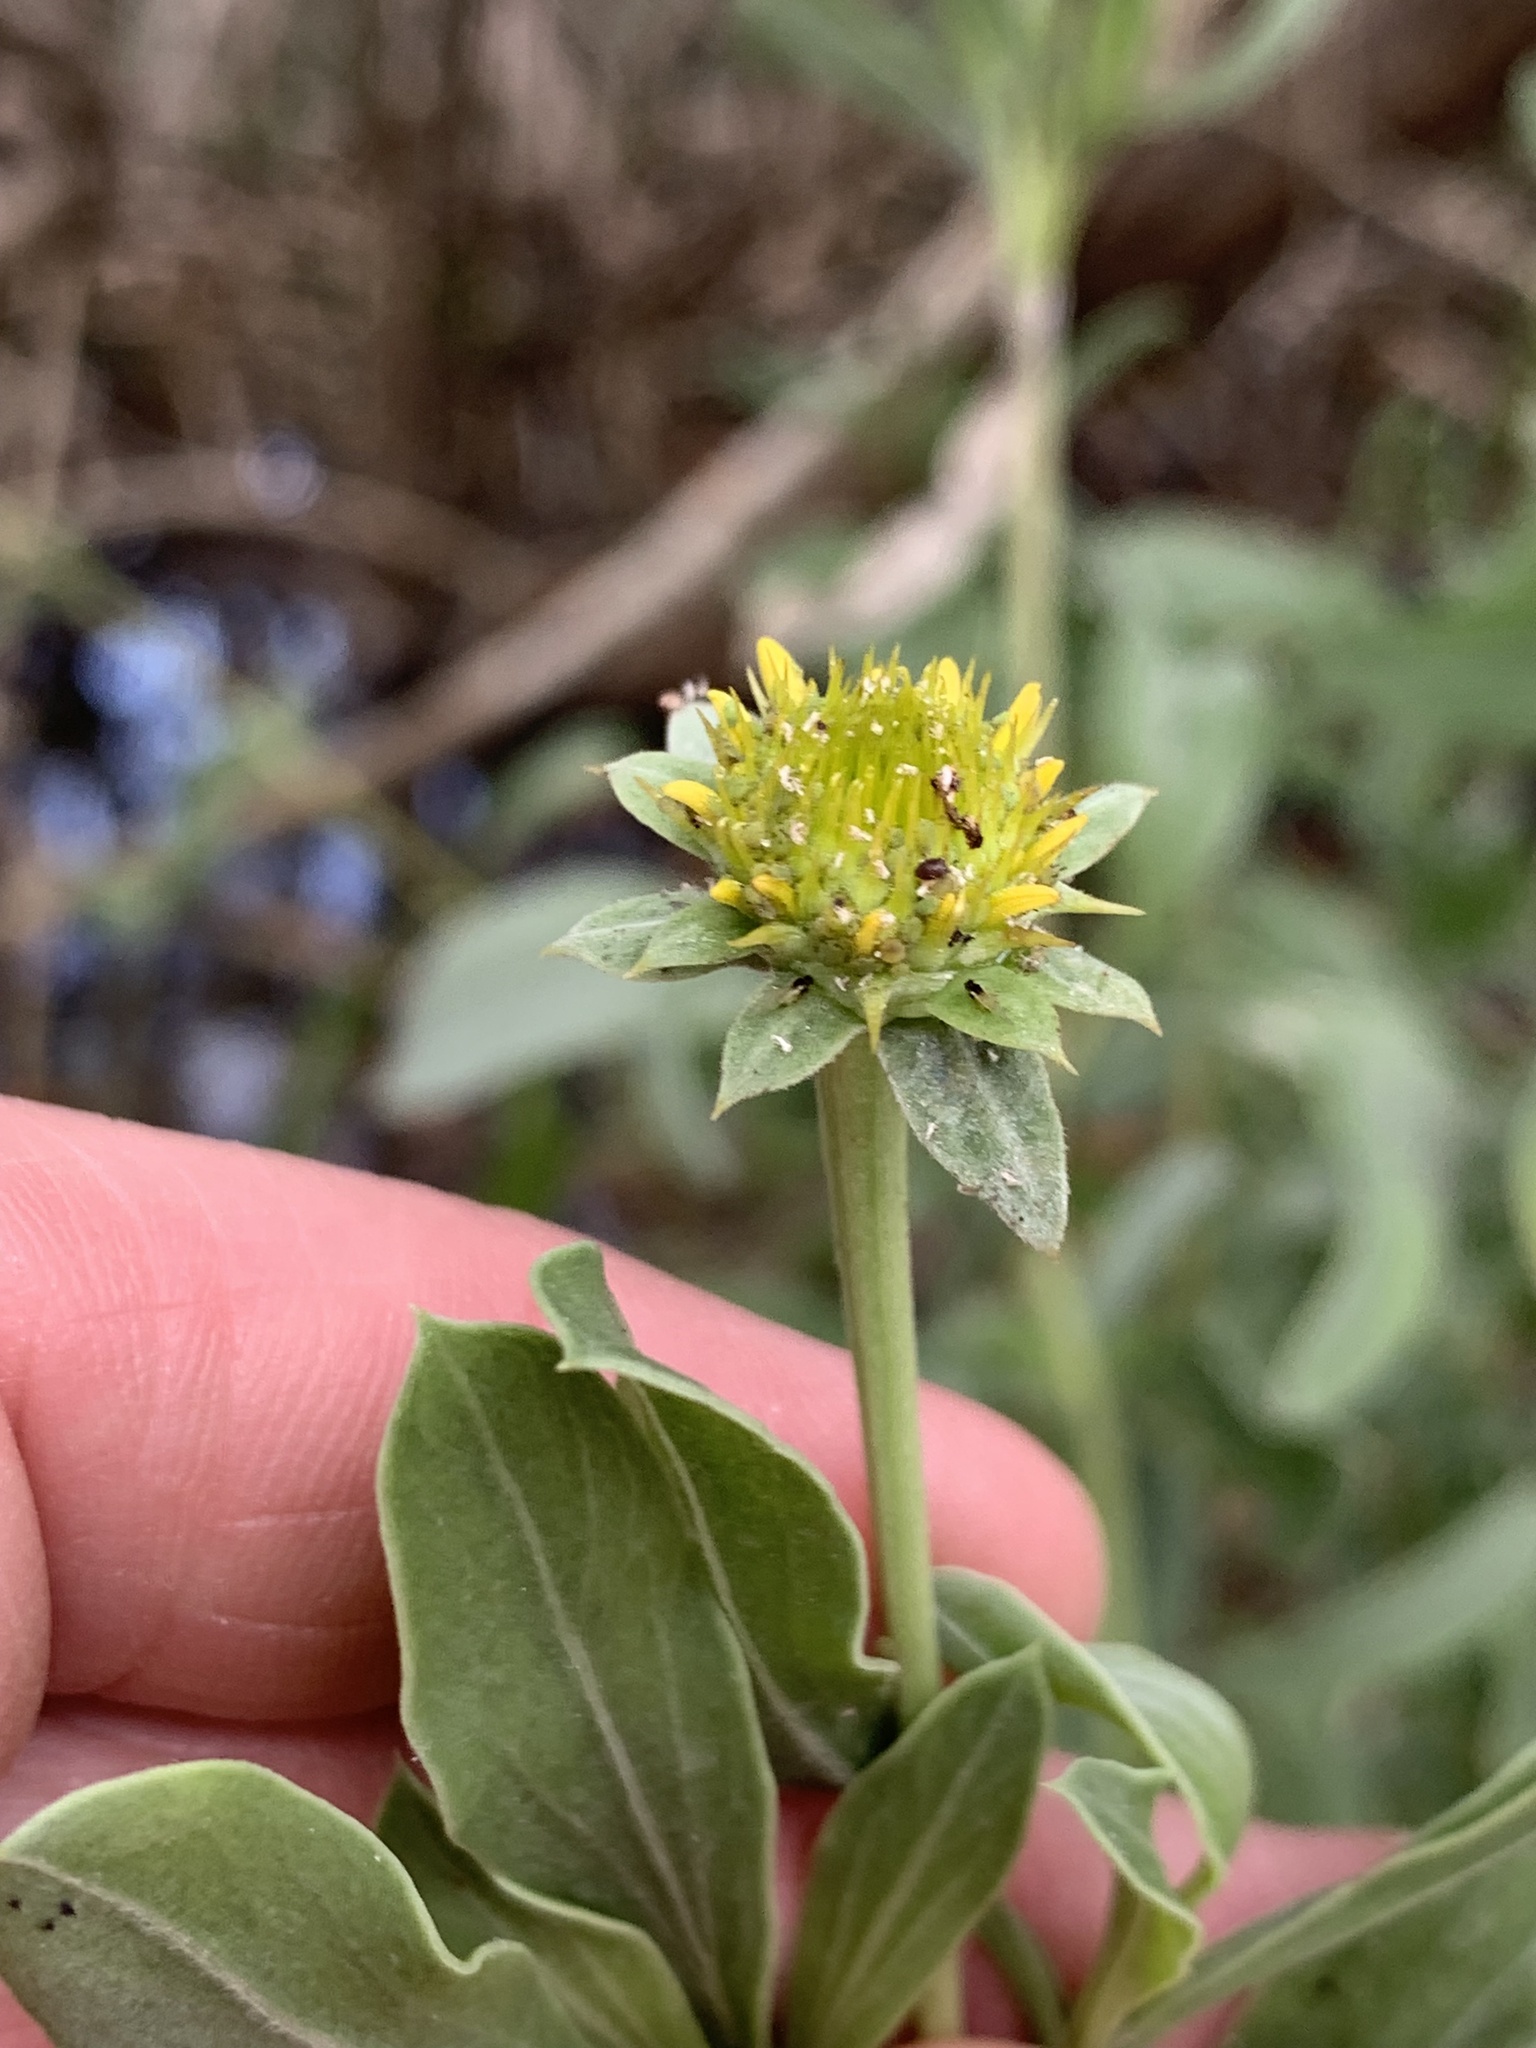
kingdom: Plantae
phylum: Tracheophyta
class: Magnoliopsida
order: Asterales
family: Asteraceae
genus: Borrichia
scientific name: Borrichia frutescens
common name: Sea oxeye
